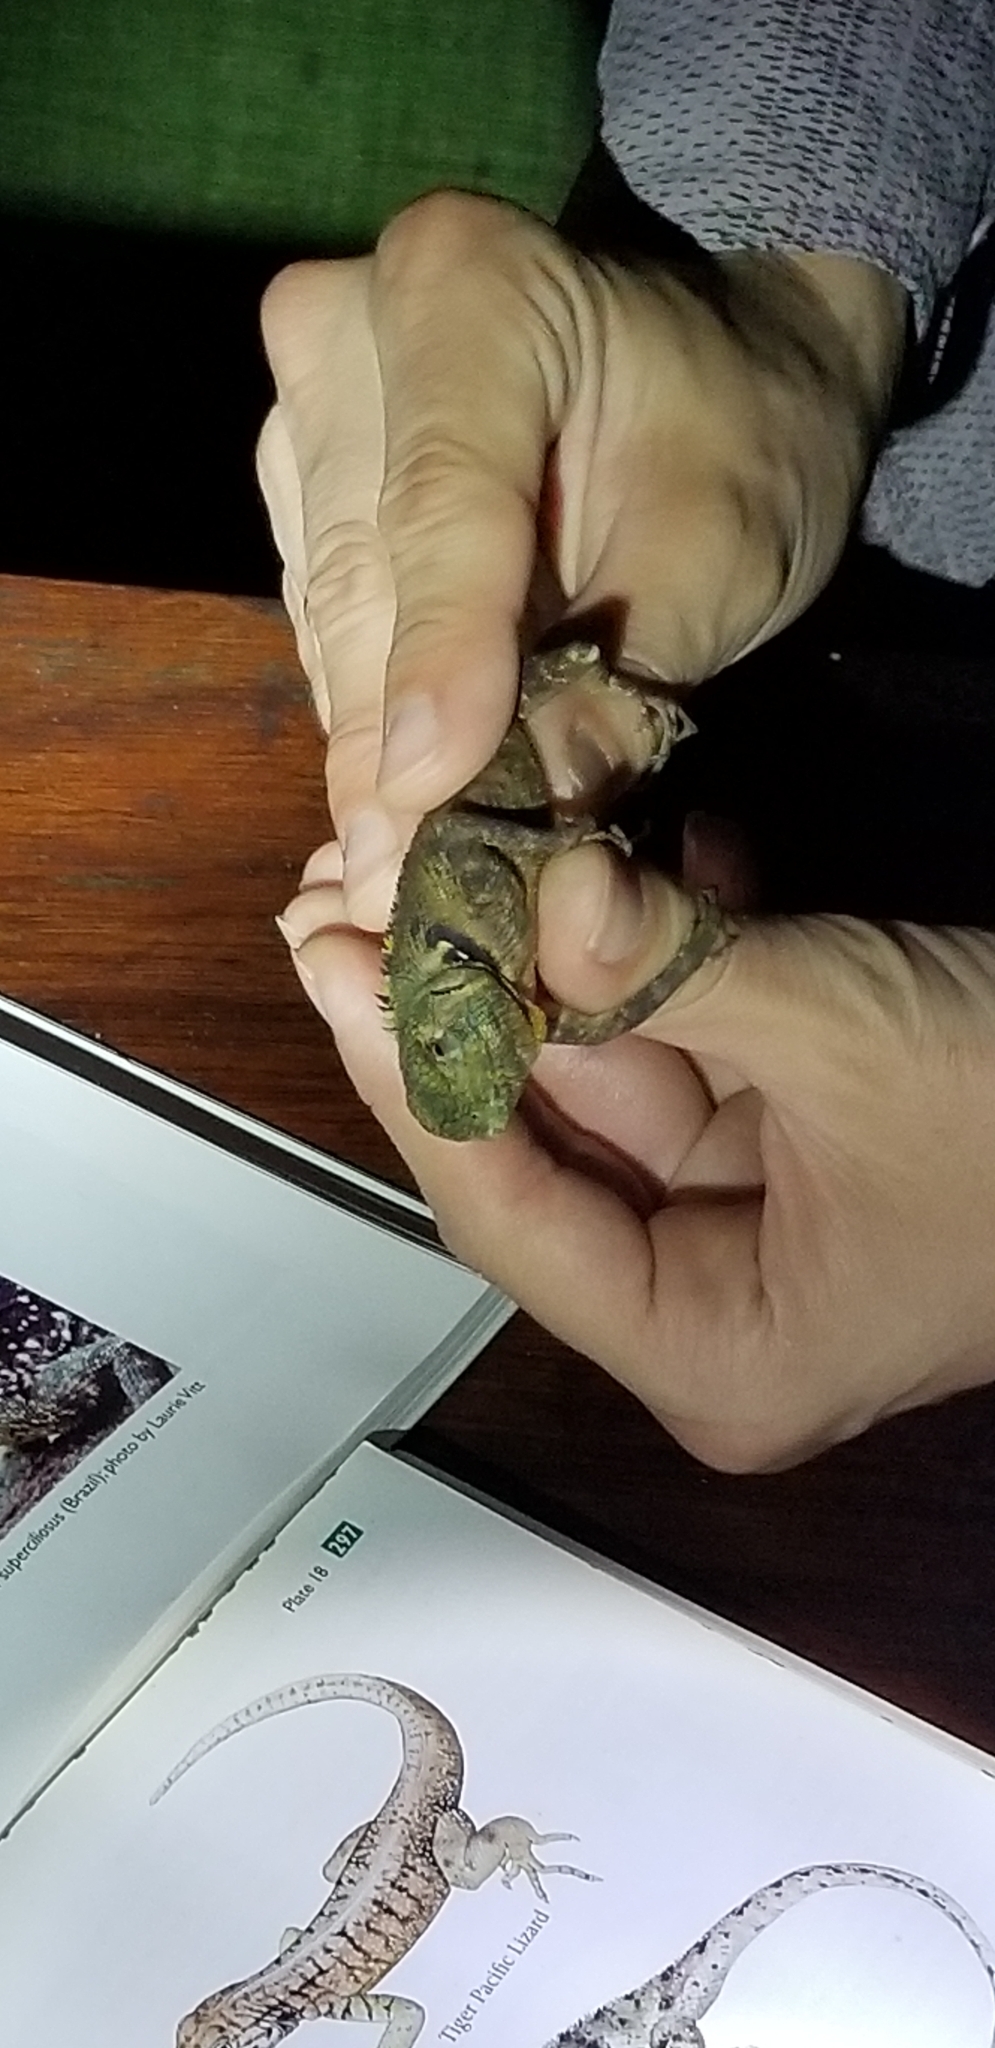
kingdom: Animalia
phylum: Chordata
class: Squamata
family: Tropiduridae
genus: Plica
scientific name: Plica umbra
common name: Harlequin racerunner
